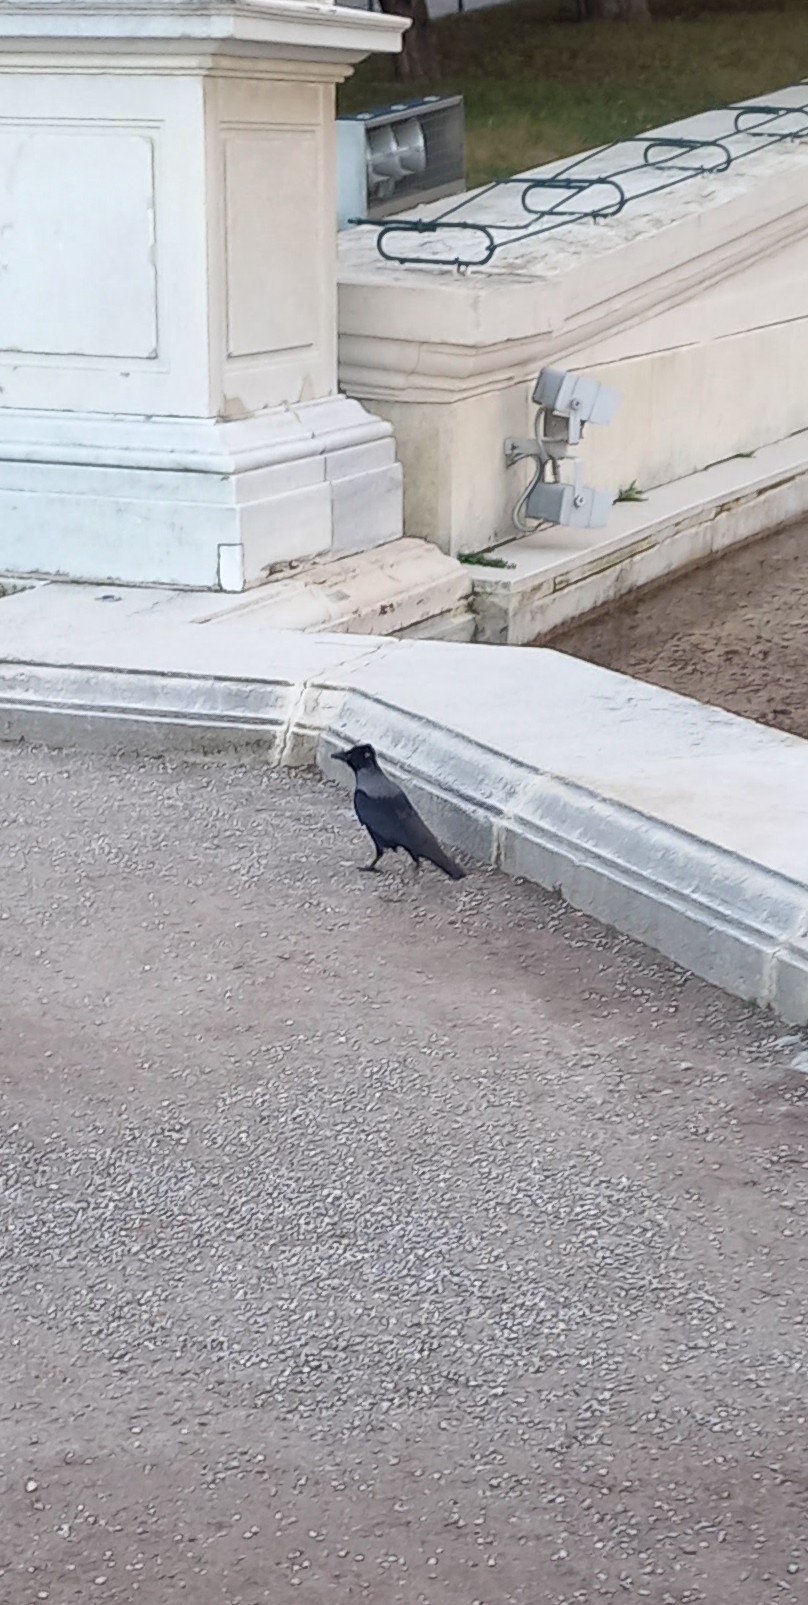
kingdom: Animalia
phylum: Chordata
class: Aves
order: Passeriformes
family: Corvidae
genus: Corvus
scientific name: Corvus cornix
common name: Hooded crow
